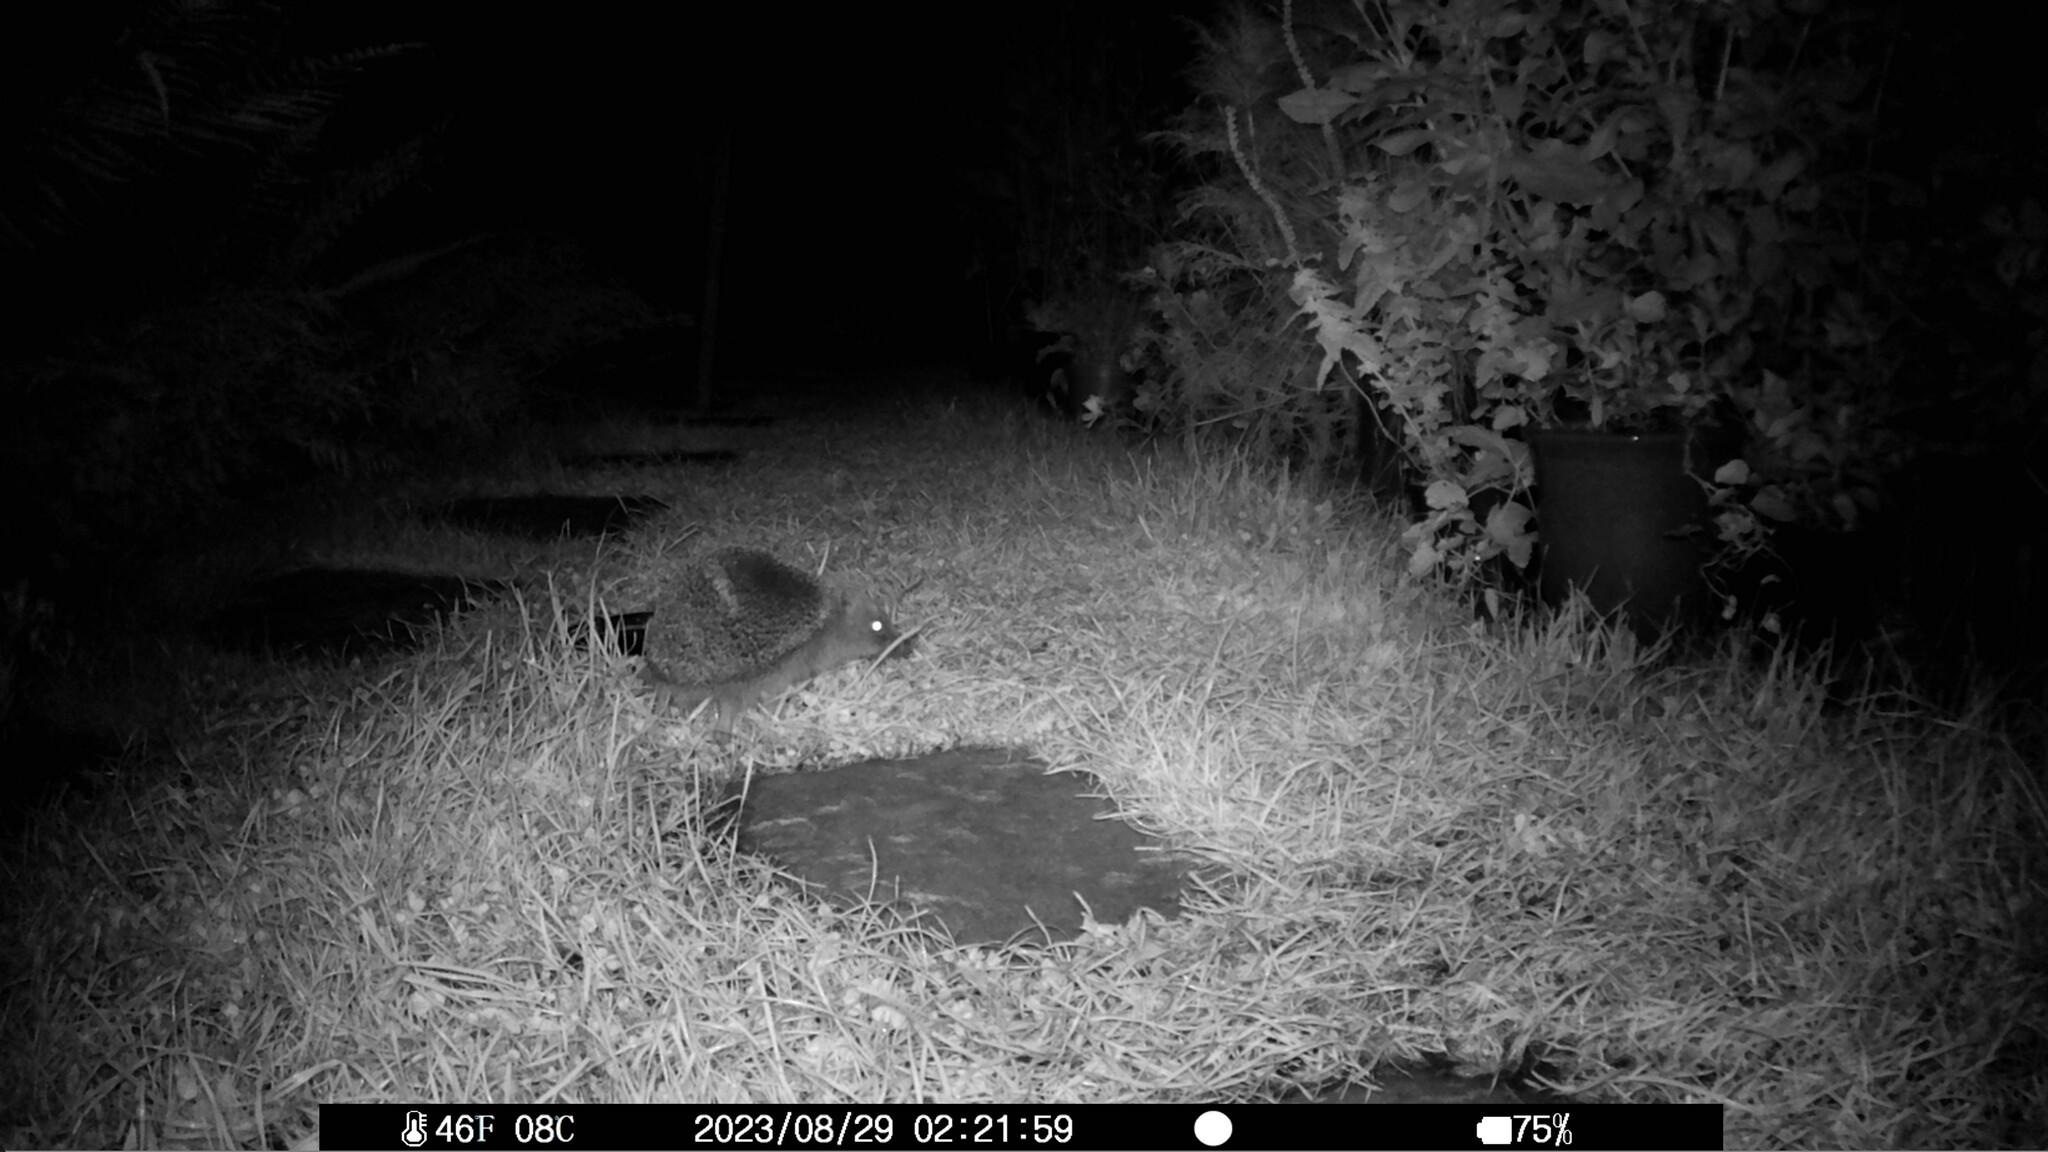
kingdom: Animalia
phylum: Chordata
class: Mammalia
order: Erinaceomorpha
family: Erinaceidae
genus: Erinaceus
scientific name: Erinaceus europaeus
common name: West european hedgehog
